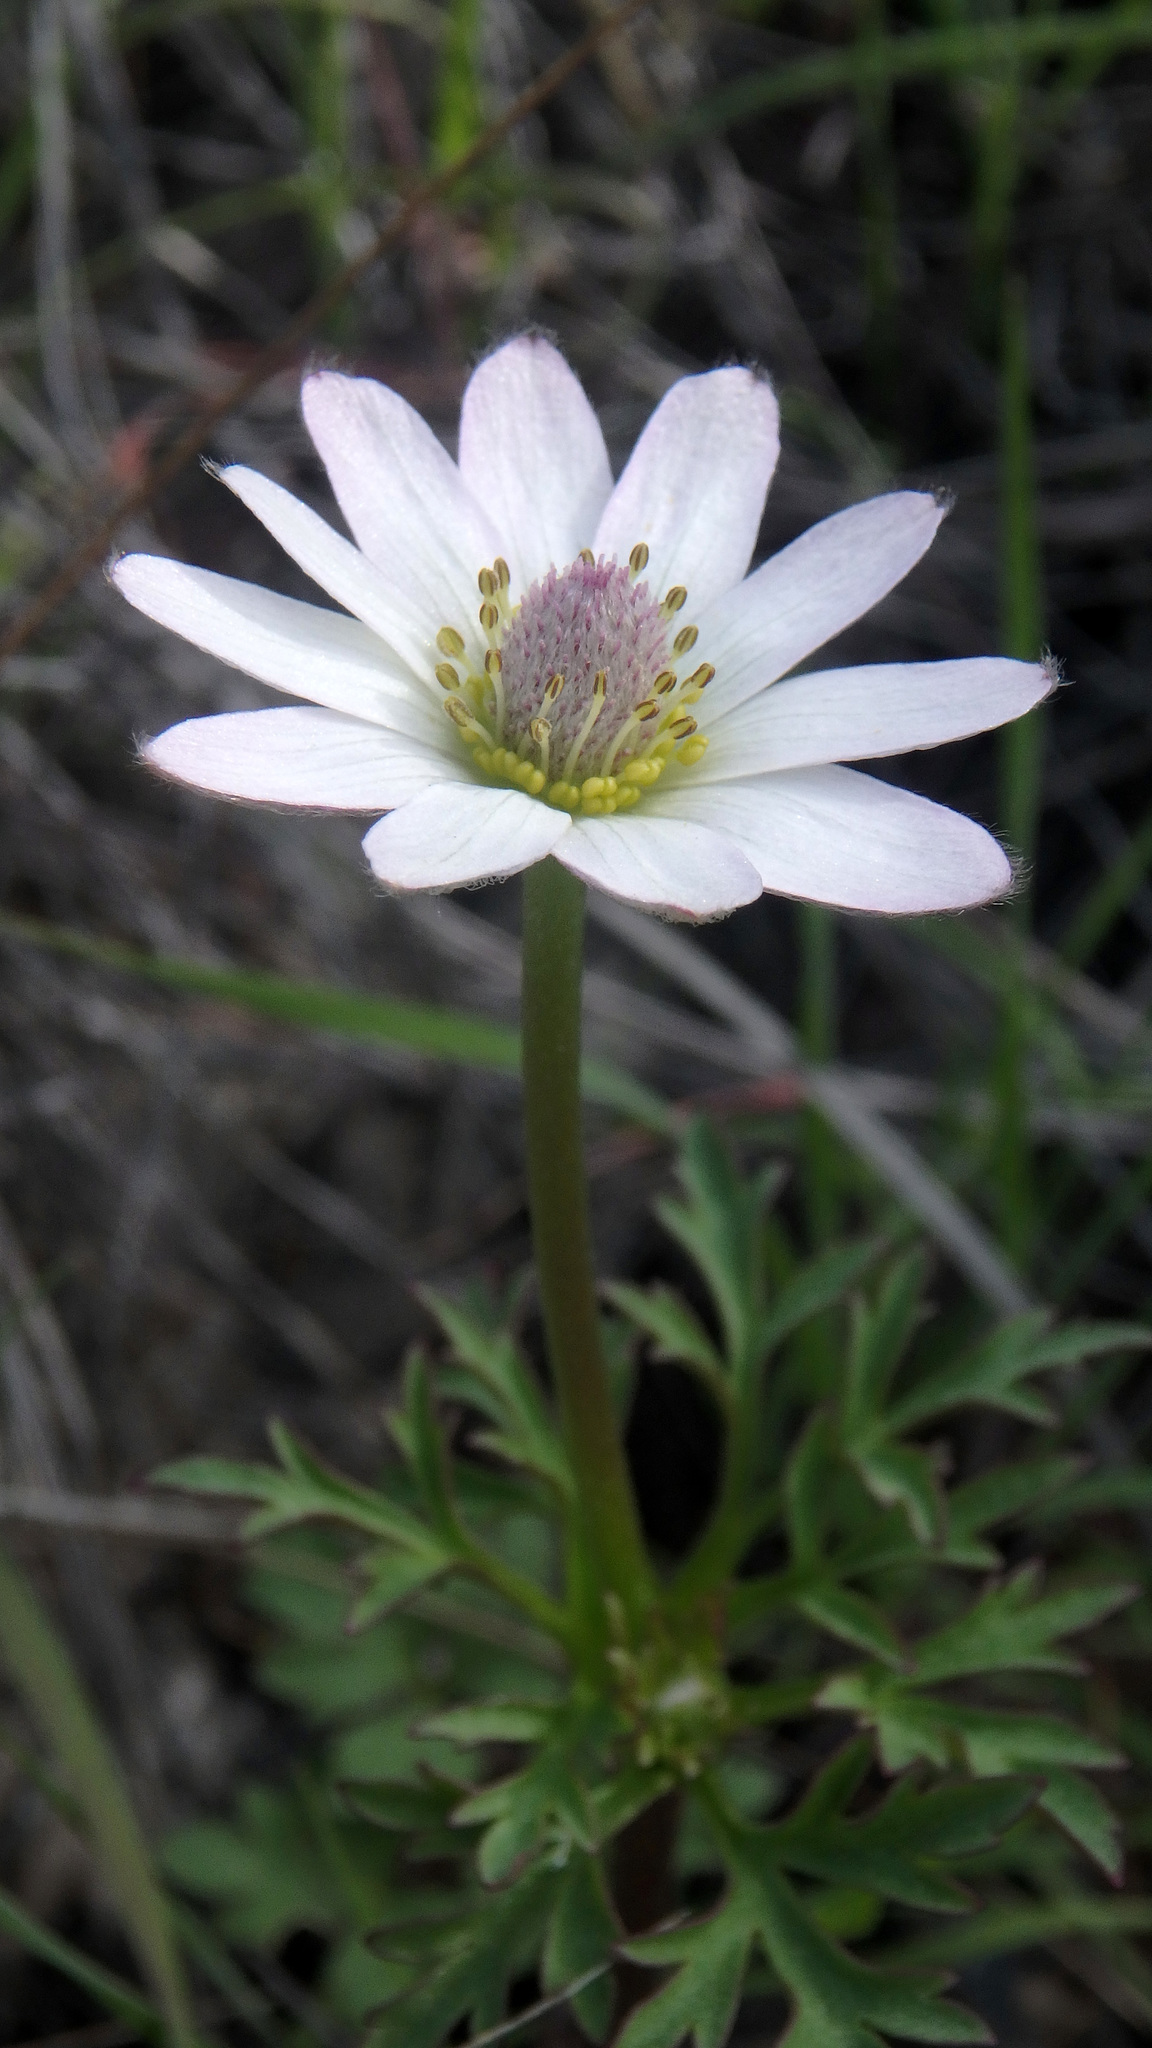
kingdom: Plantae
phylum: Tracheophyta
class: Magnoliopsida
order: Ranunculales
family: Ranunculaceae
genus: Anemone
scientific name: Anemone tuberosa
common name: Desert anemone
